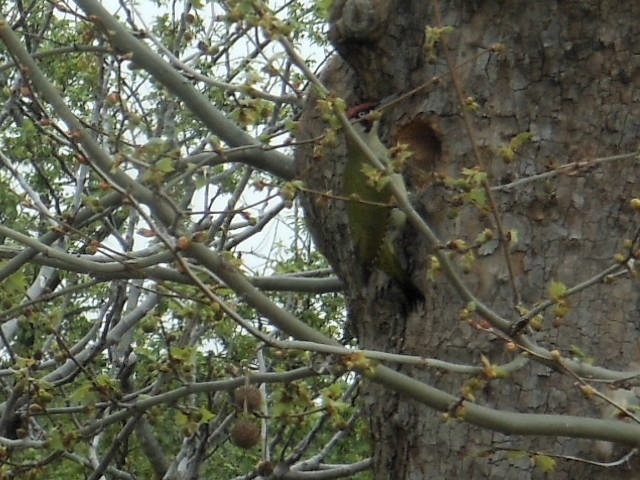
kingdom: Animalia
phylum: Chordata
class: Aves
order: Piciformes
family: Picidae
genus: Picus
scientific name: Picus viridis
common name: European green woodpecker
